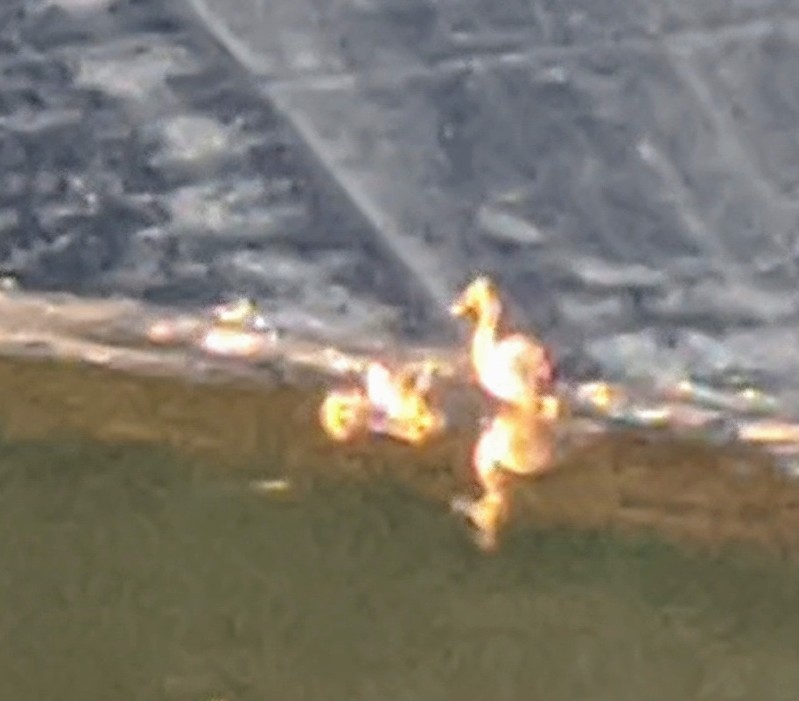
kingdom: Animalia
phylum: Chordata
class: Aves
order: Anseriformes
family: Anatidae
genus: Anas
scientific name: Anas platyrhynchos
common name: Mallard
